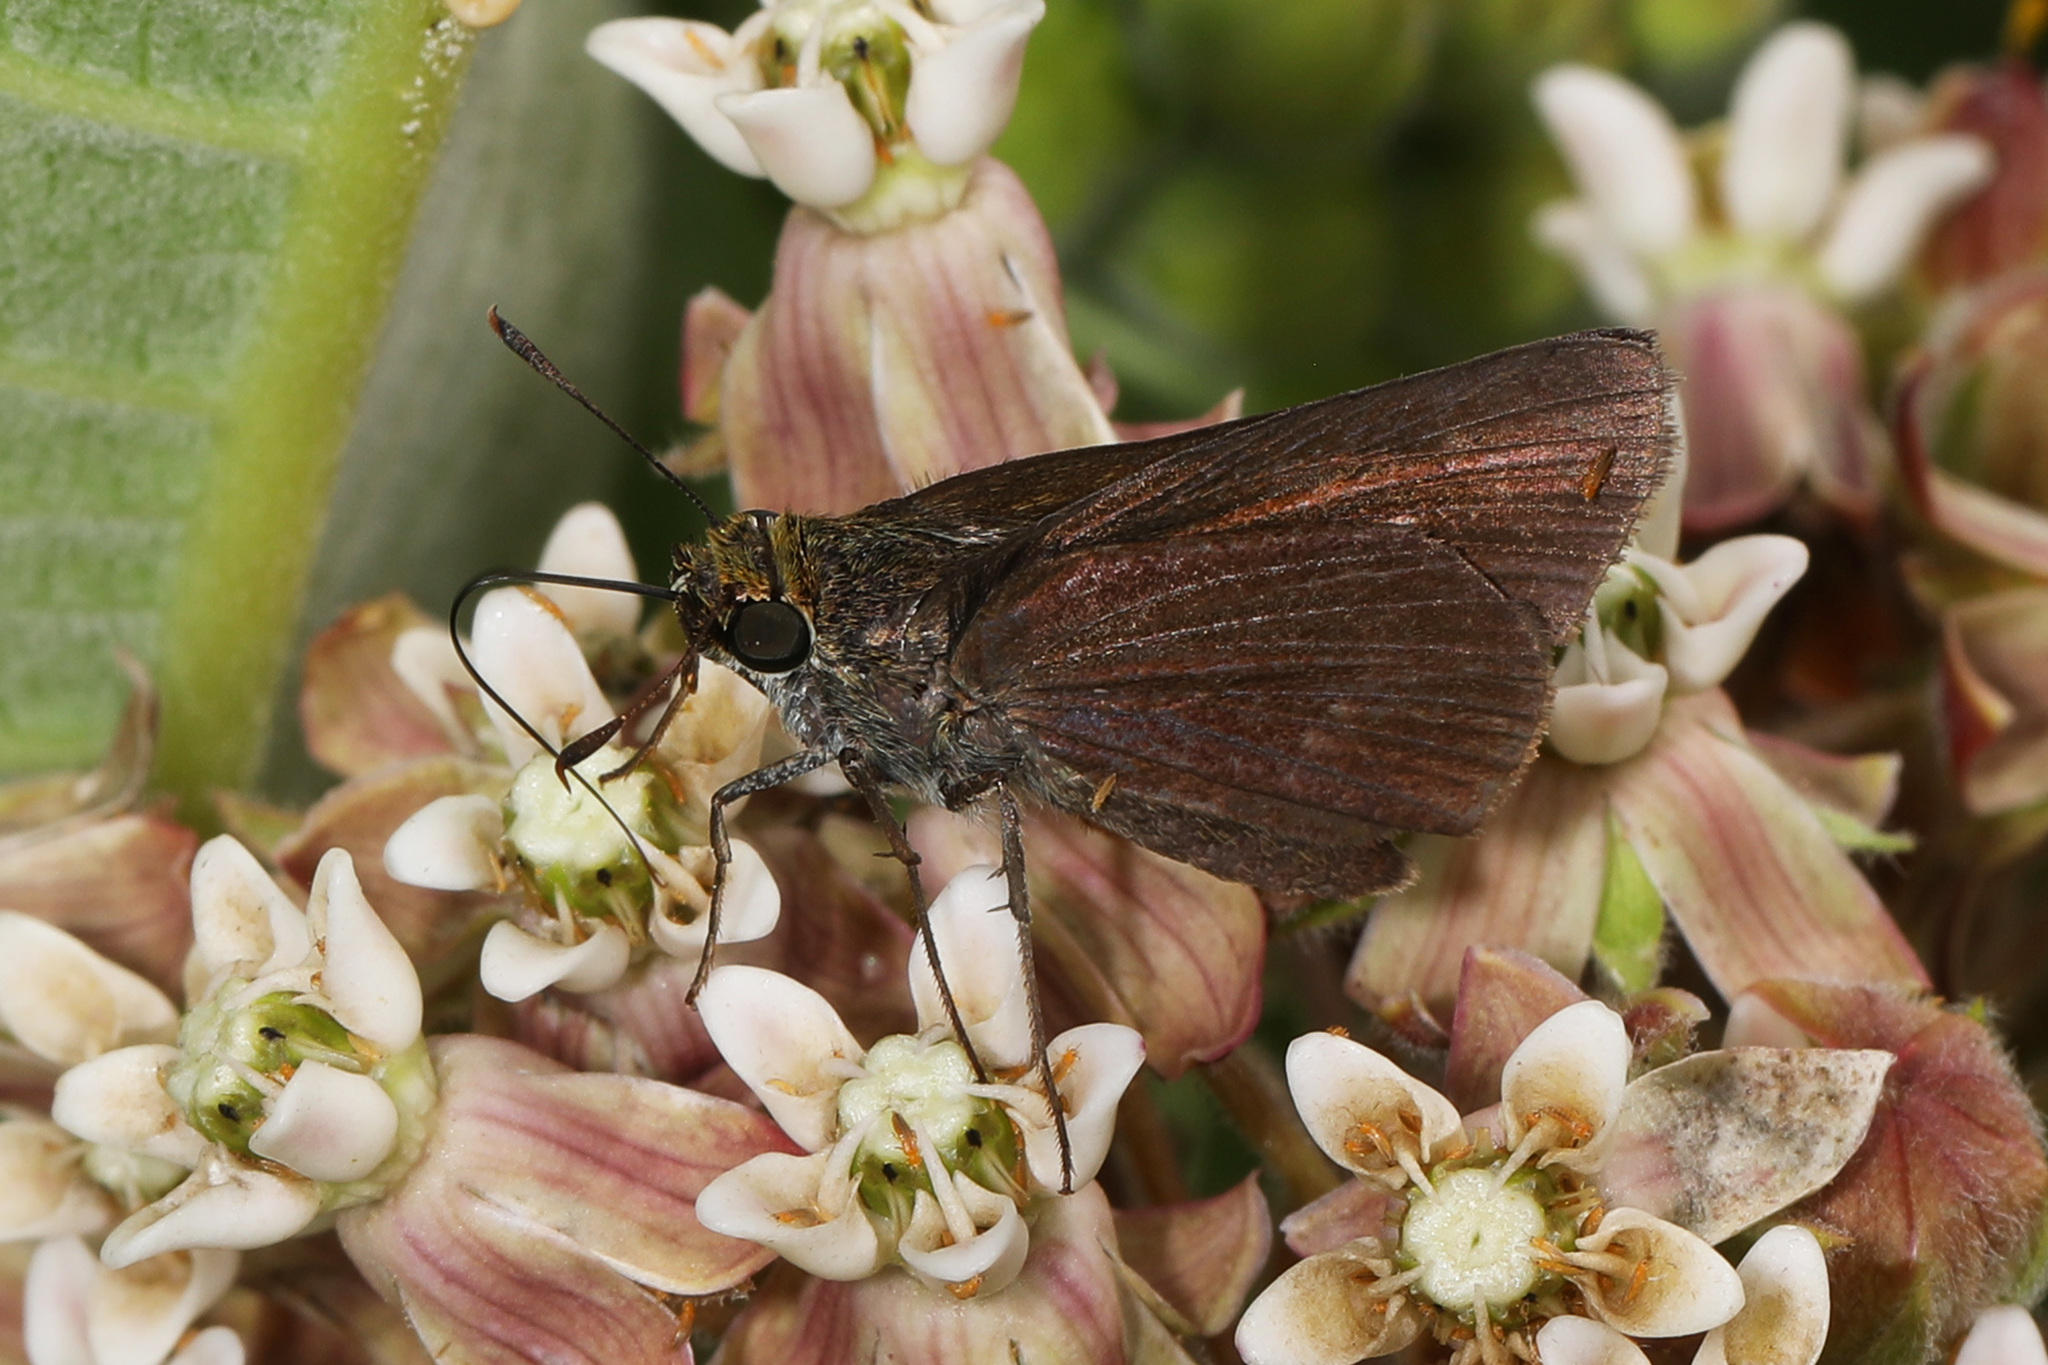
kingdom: Animalia
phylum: Arthropoda
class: Insecta
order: Lepidoptera
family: Hesperiidae
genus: Euphyes
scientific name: Euphyes vestris
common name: Dun skipper
